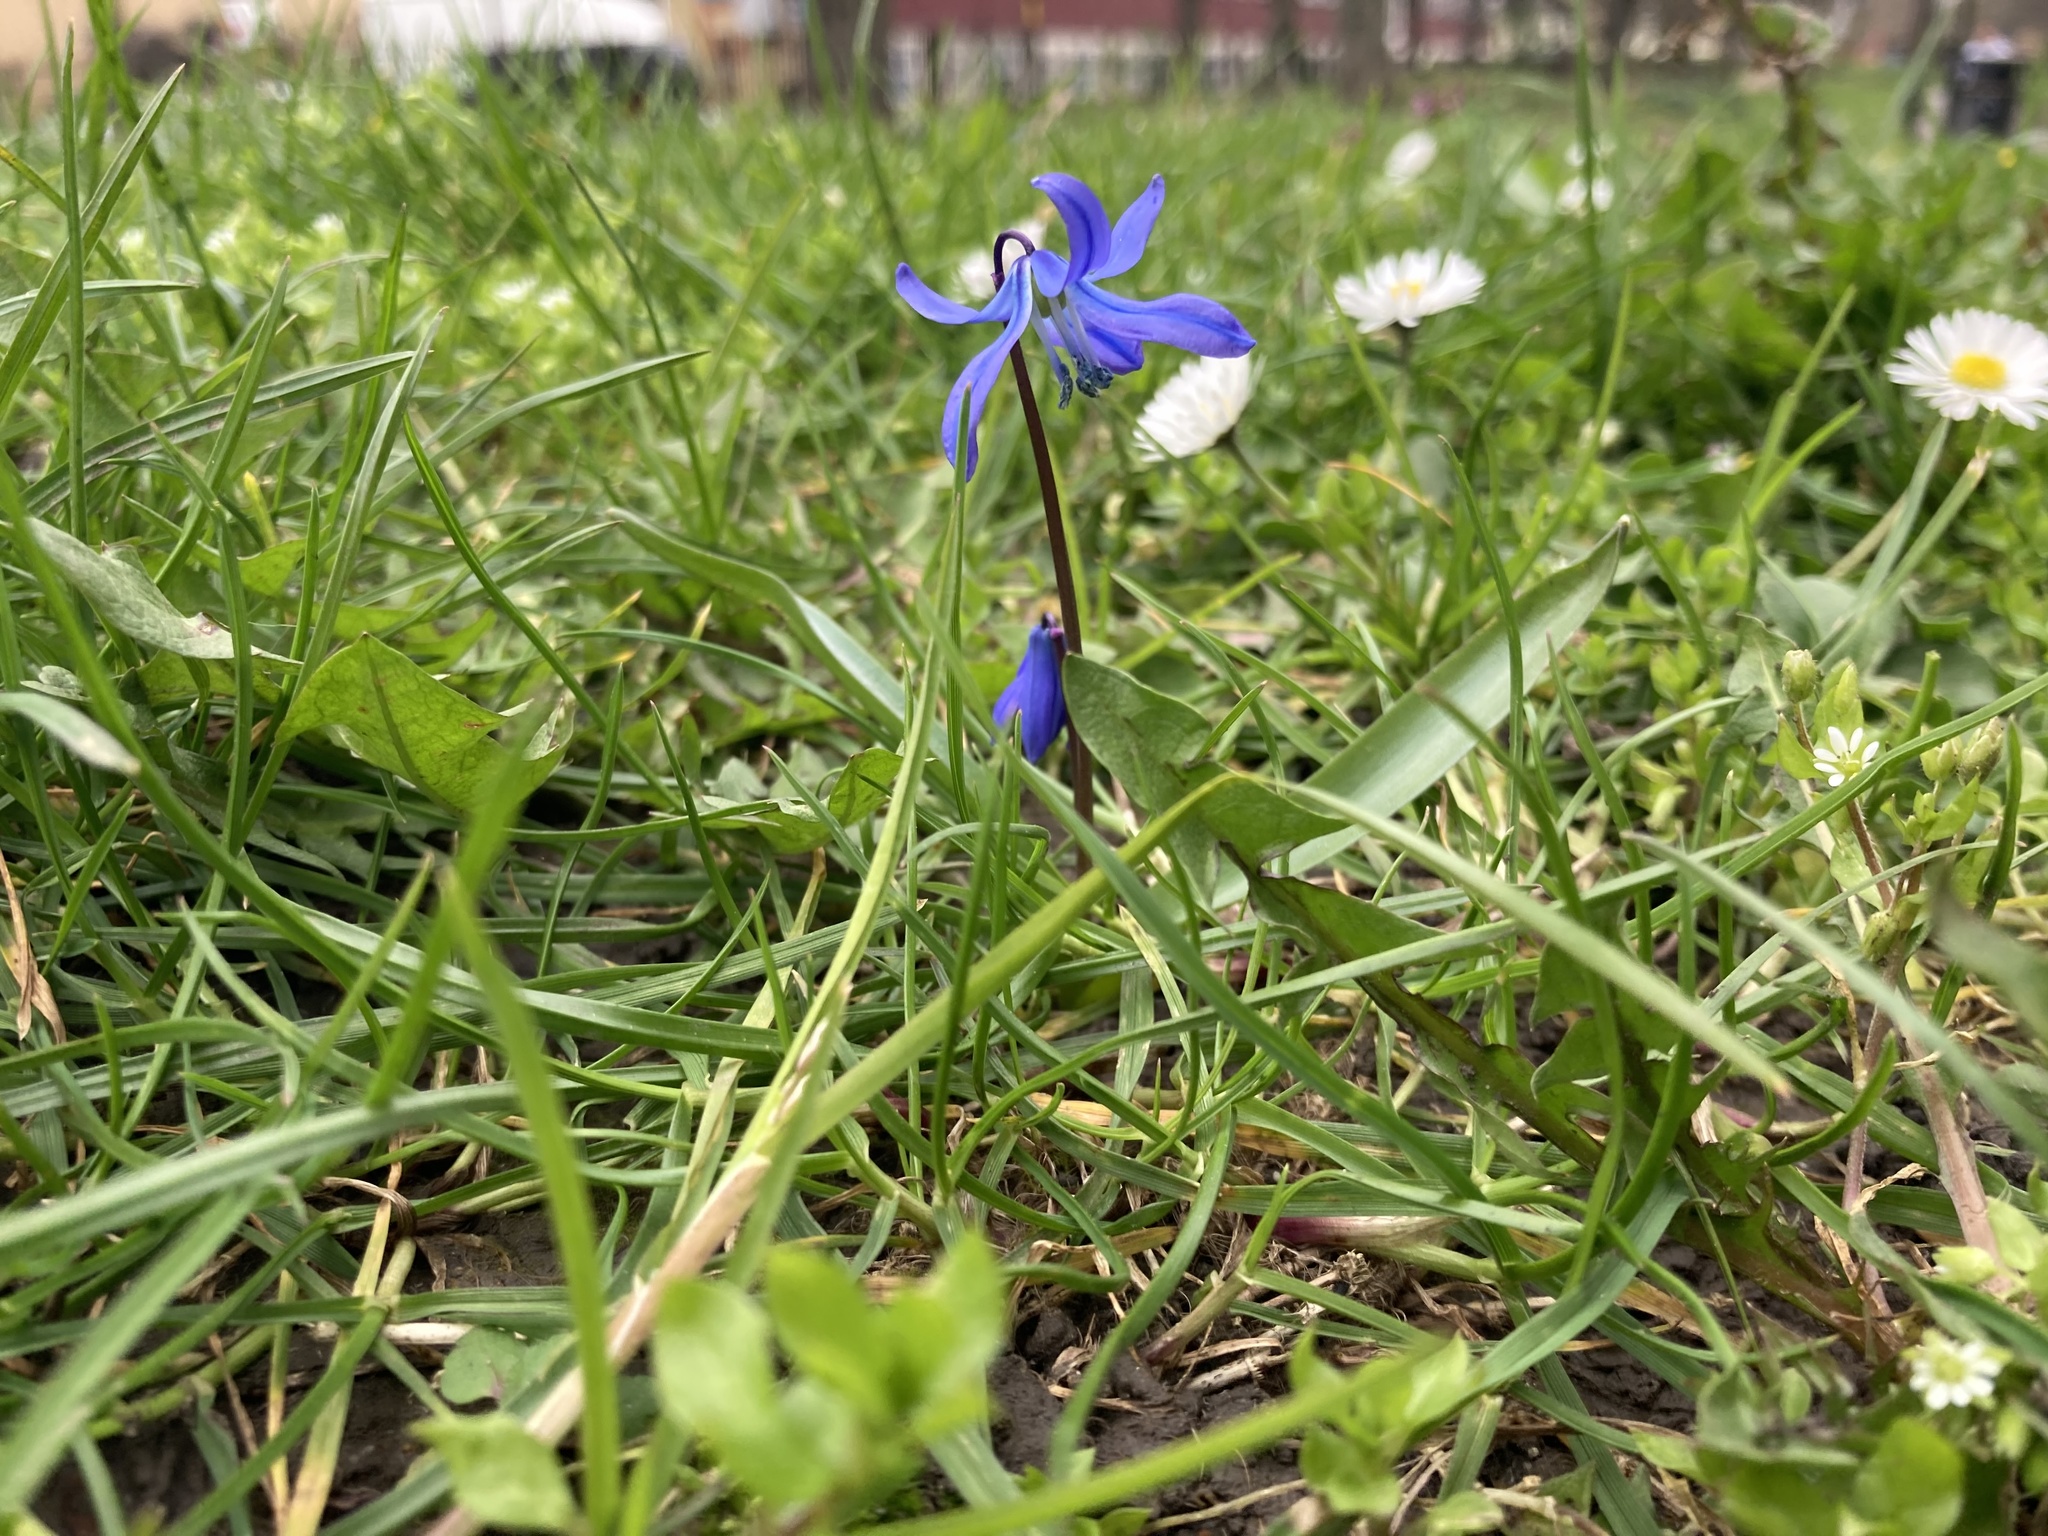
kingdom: Plantae
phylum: Tracheophyta
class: Liliopsida
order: Asparagales
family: Asparagaceae
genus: Scilla
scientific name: Scilla siberica
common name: Siberian squill
